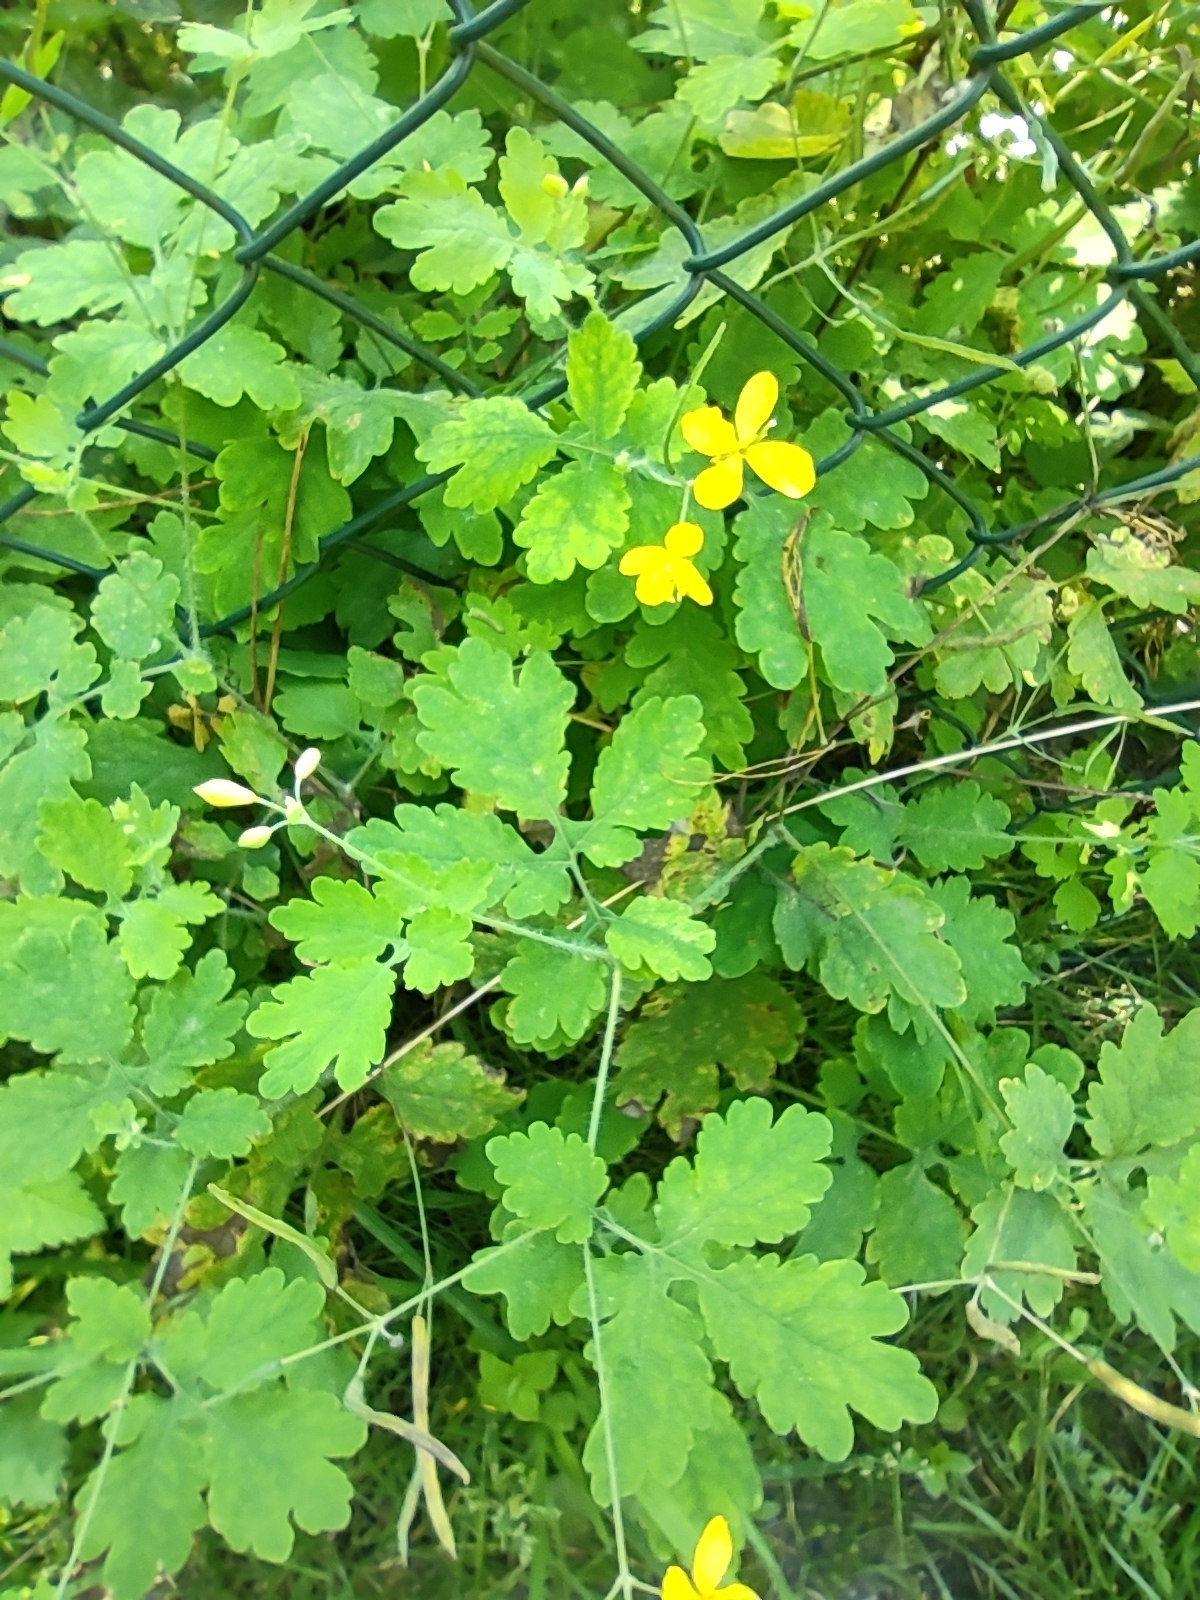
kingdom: Plantae
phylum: Tracheophyta
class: Magnoliopsida
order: Ranunculales
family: Papaveraceae
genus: Chelidonium
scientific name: Chelidonium majus
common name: Greater celandine
